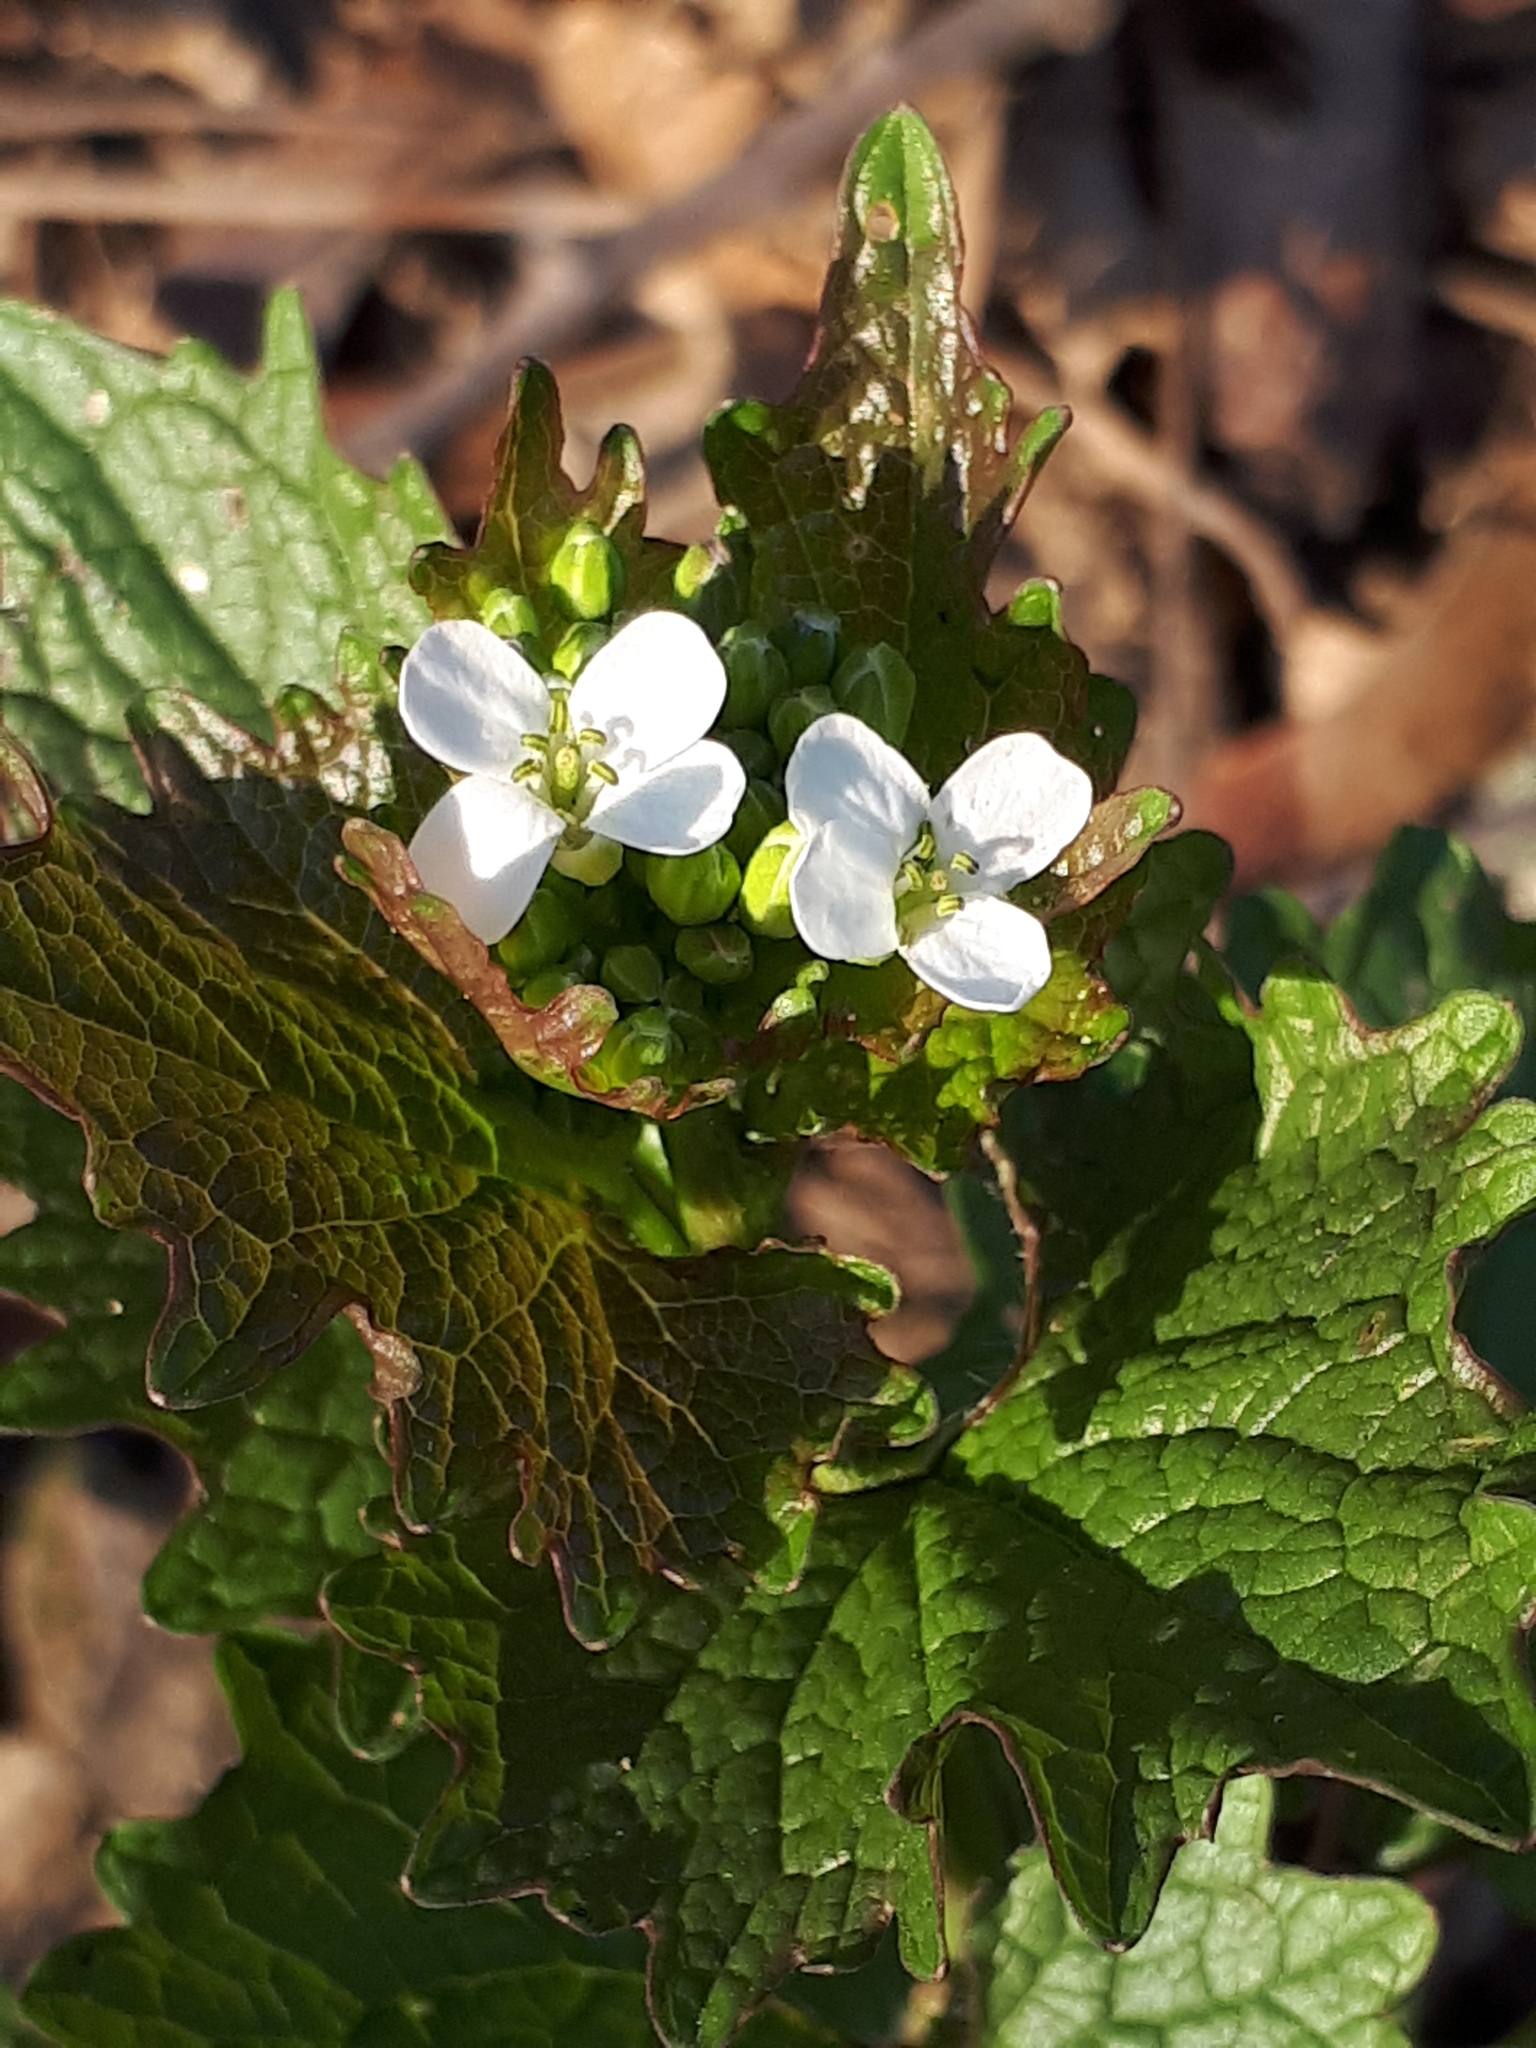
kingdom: Plantae
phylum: Tracheophyta
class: Magnoliopsida
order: Brassicales
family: Brassicaceae
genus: Alliaria
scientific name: Alliaria petiolata
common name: Garlic mustard
